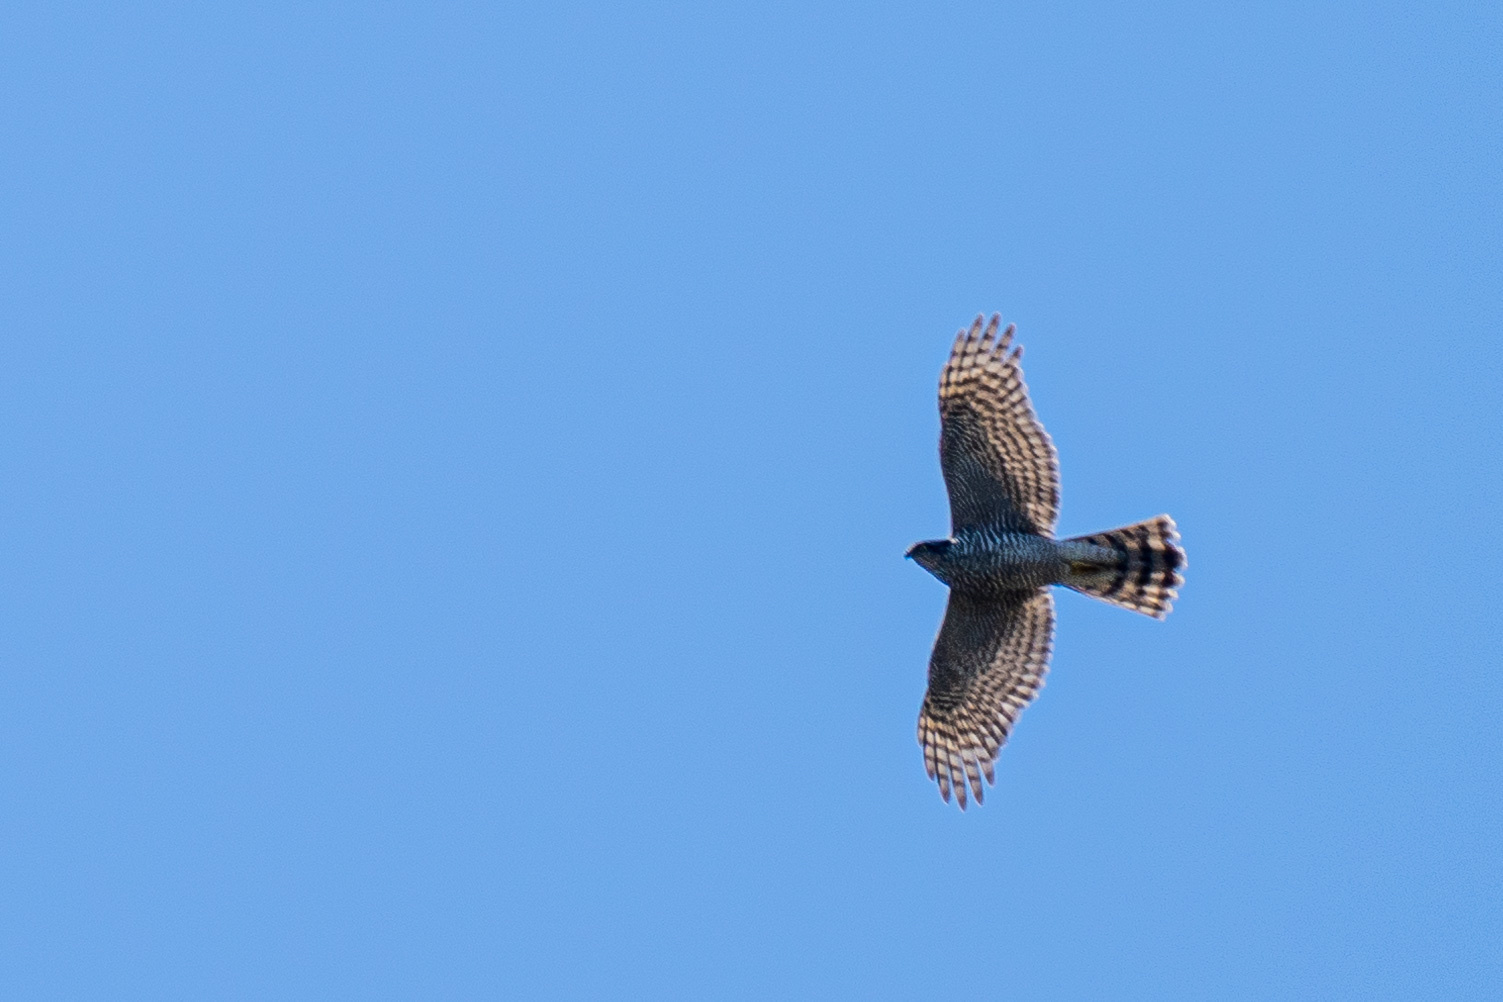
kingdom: Animalia
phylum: Chordata
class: Aves
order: Accipitriformes
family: Accipitridae
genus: Accipiter
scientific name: Accipiter nisus
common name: Eurasian sparrowhawk
